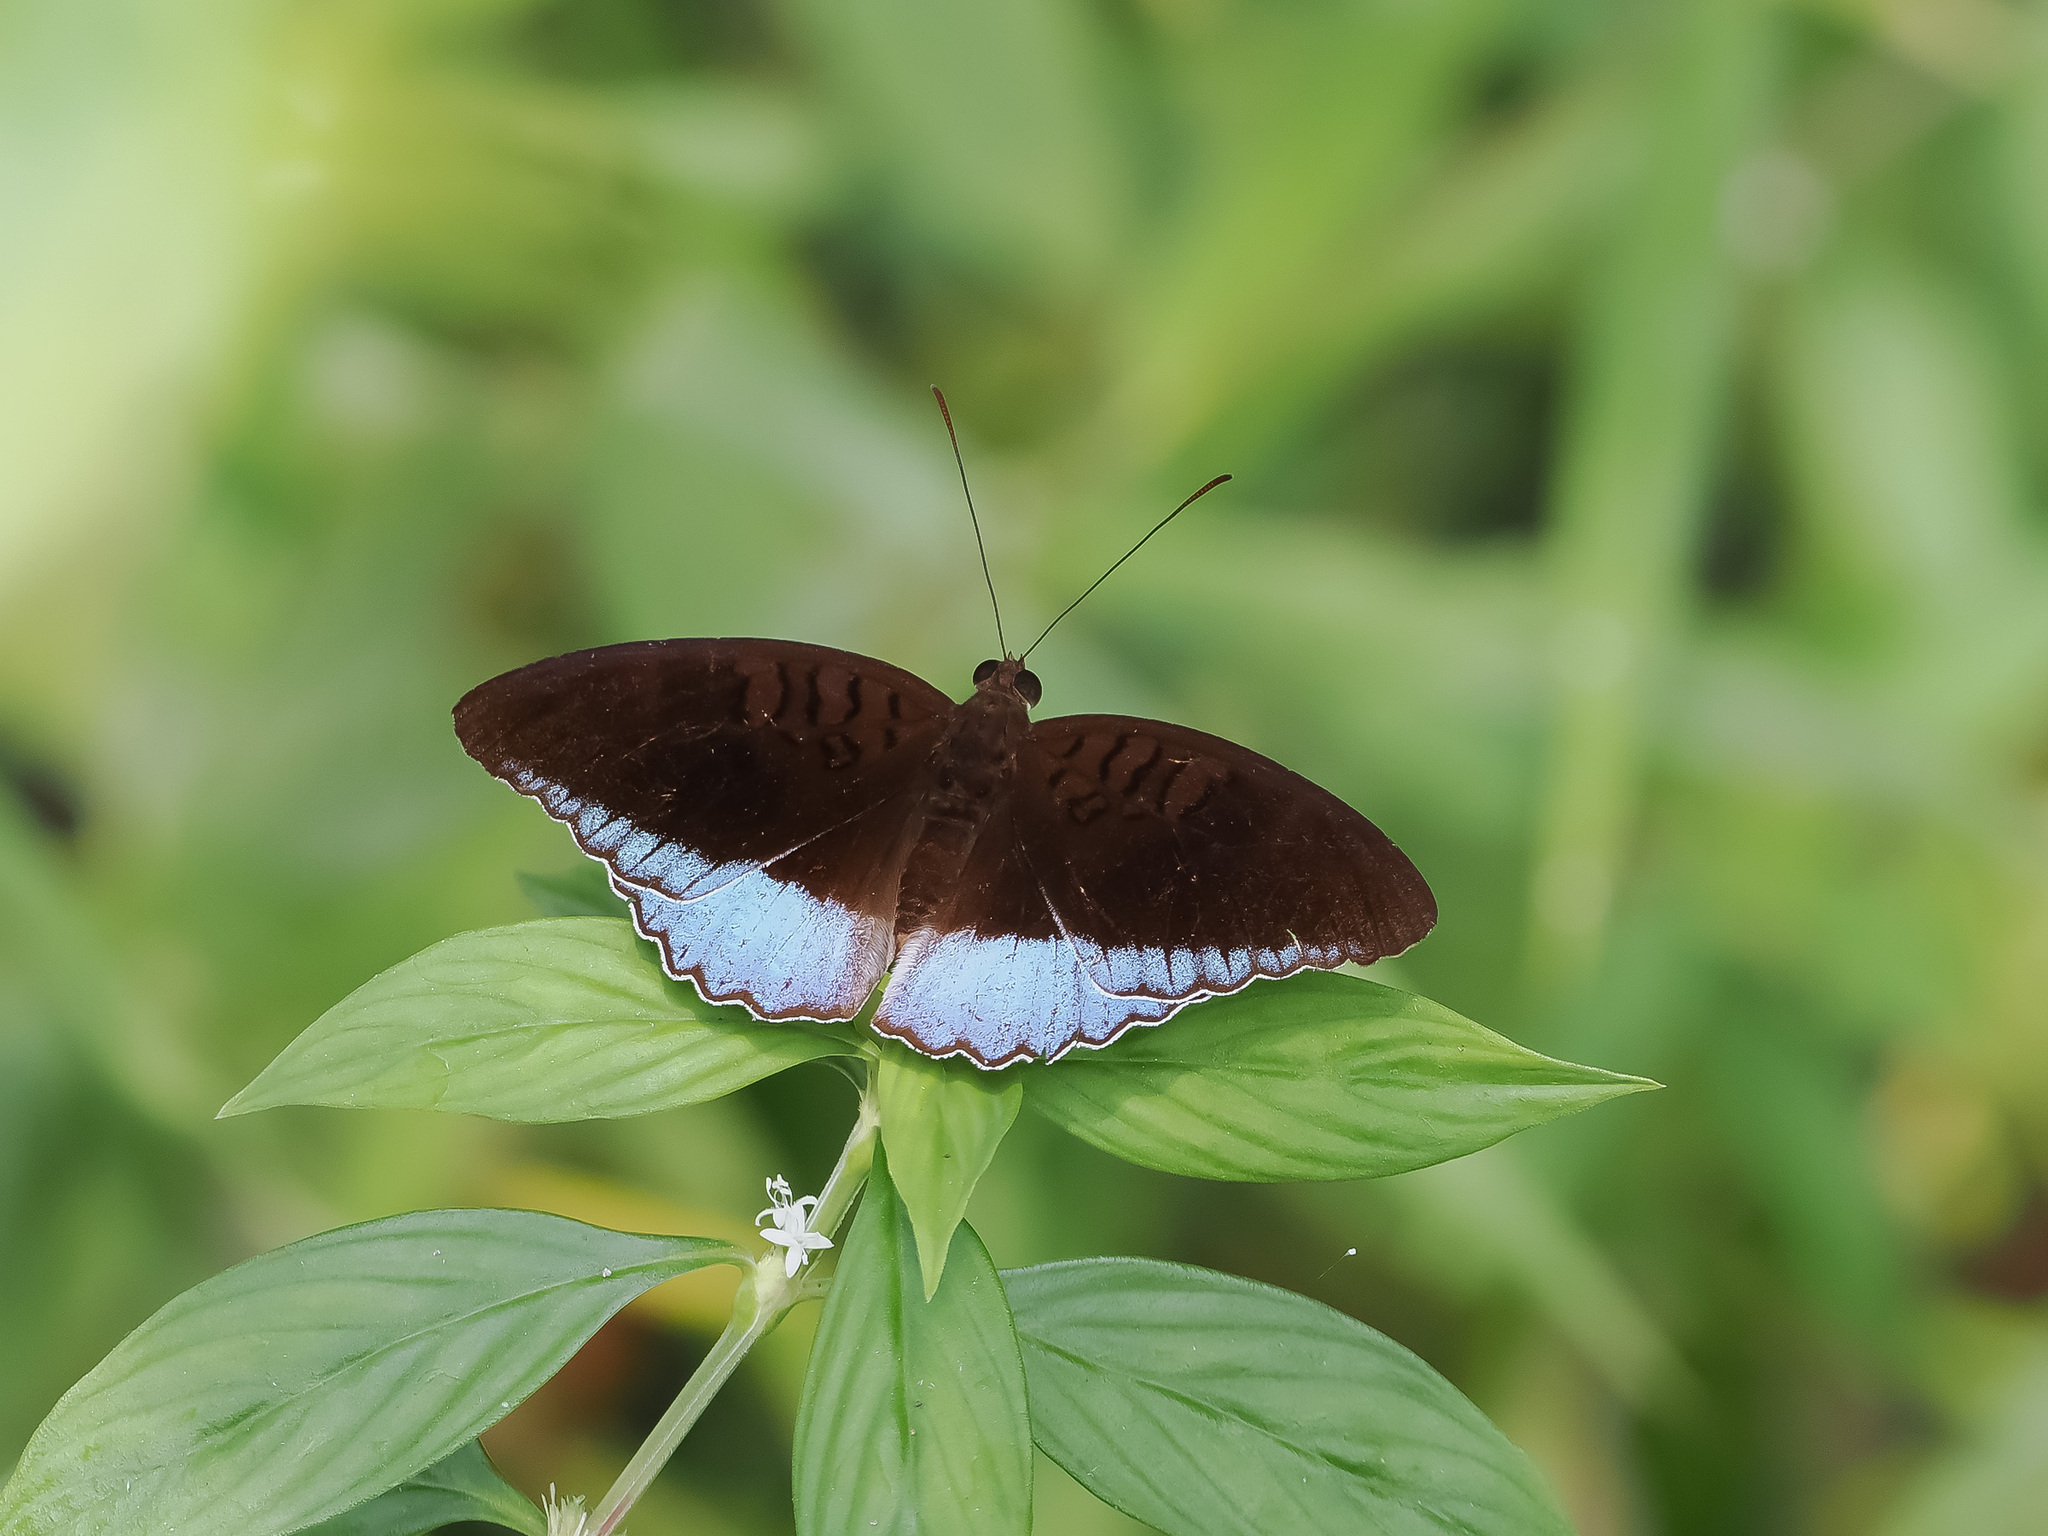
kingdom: Animalia
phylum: Arthropoda
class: Insecta
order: Lepidoptera
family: Nymphalidae
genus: Tanaecia
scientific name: Tanaecia iapis
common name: Horsfield's baron
